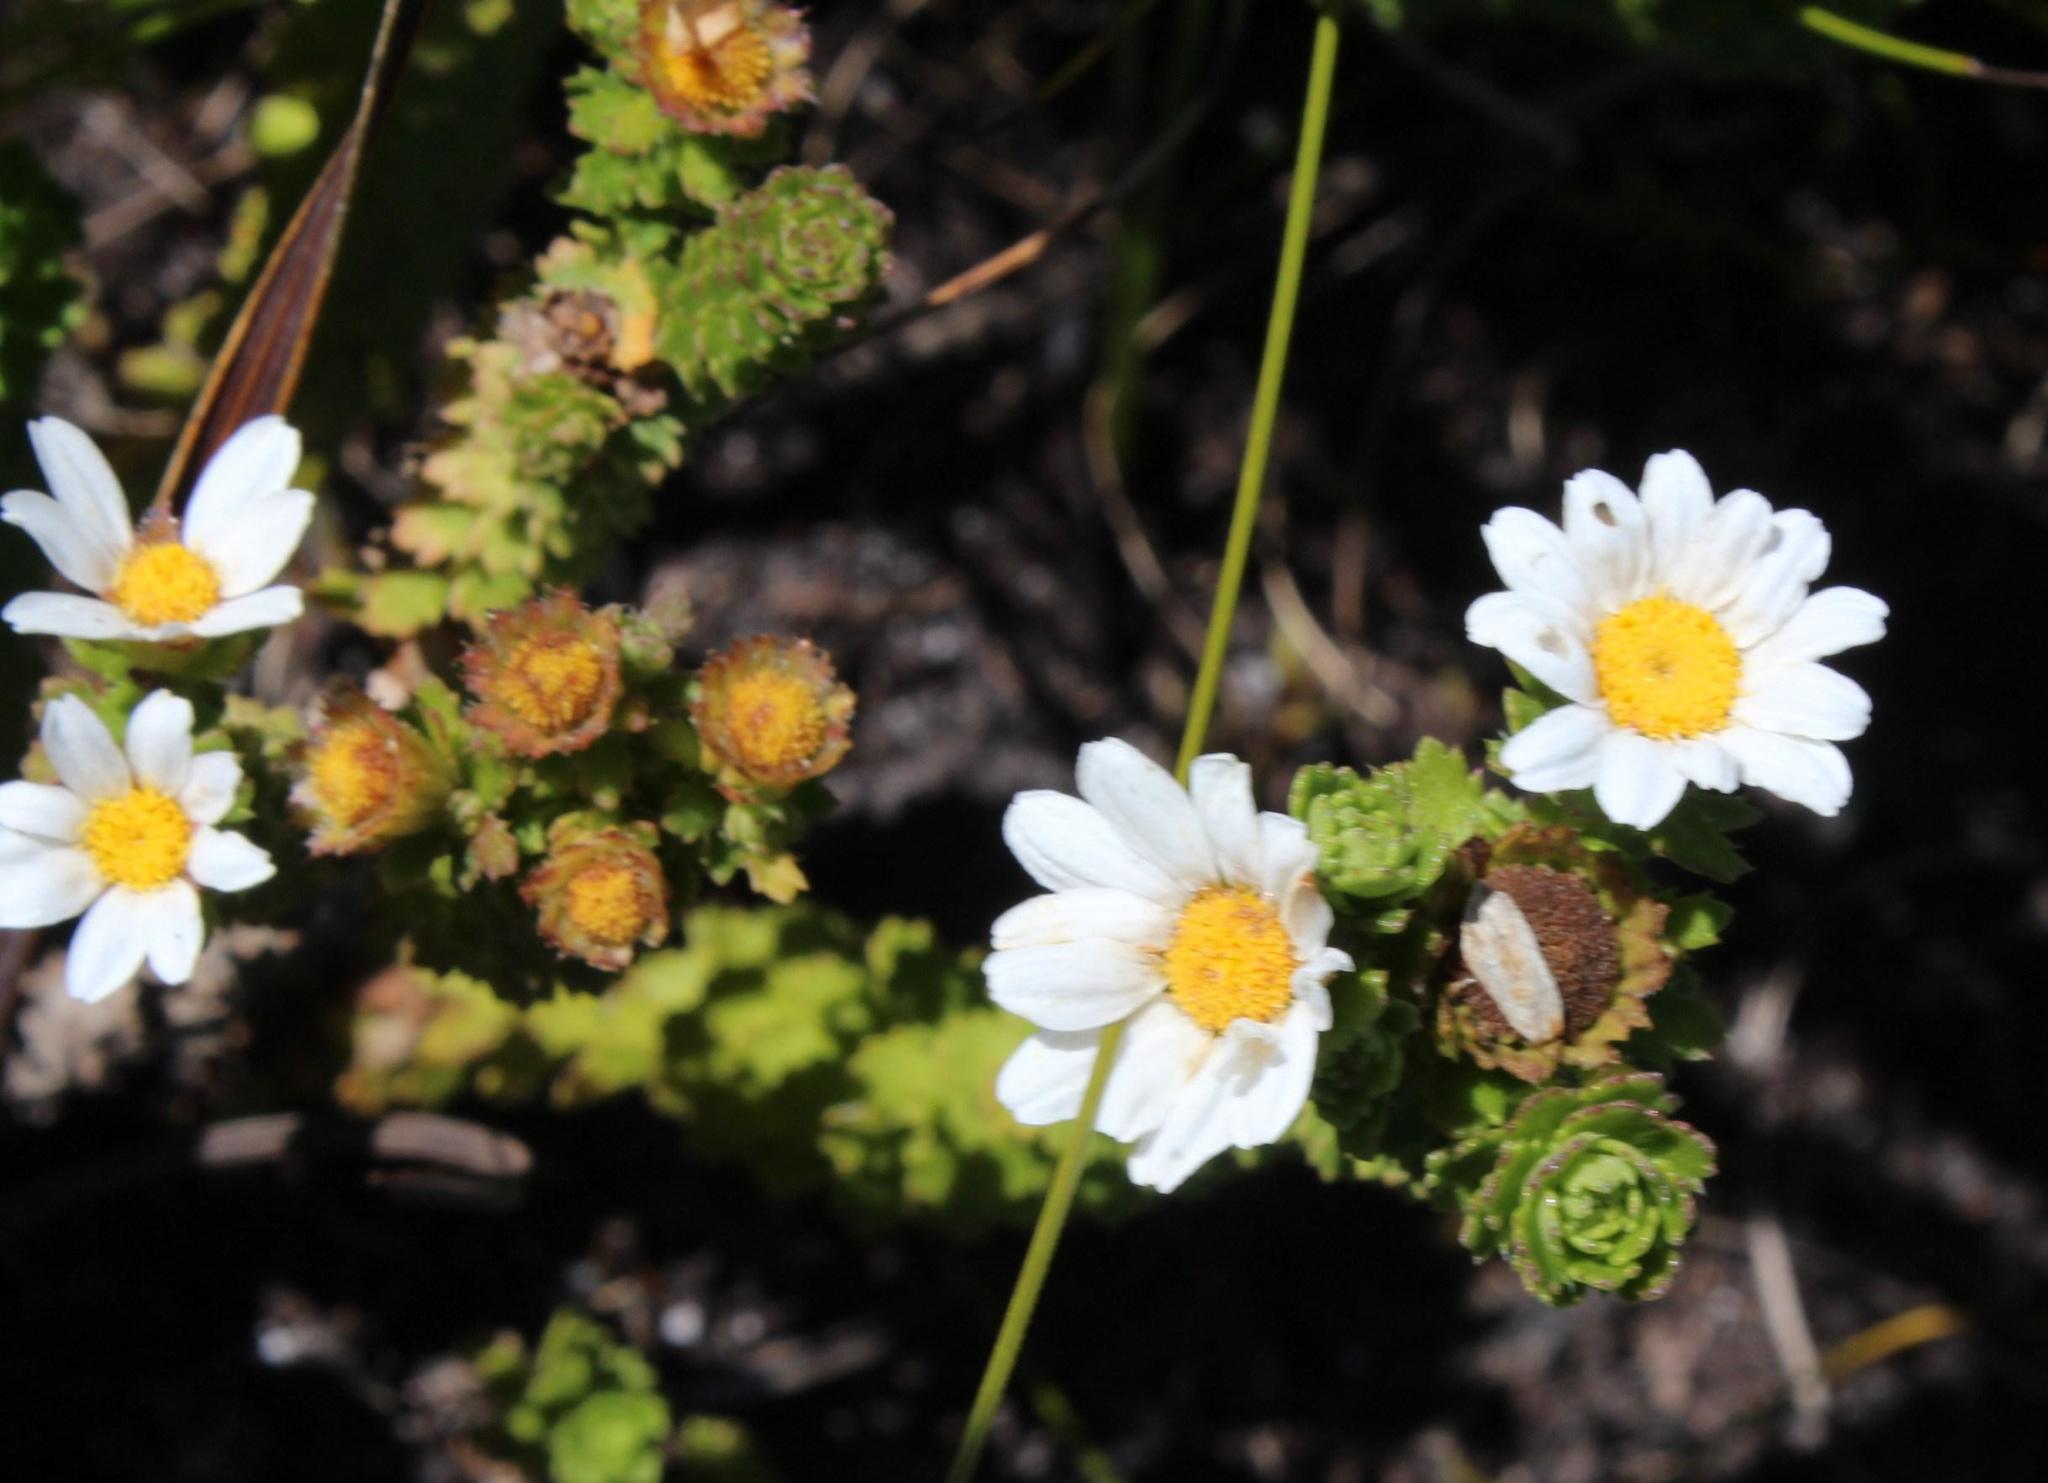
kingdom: Plantae
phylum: Tracheophyta
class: Magnoliopsida
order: Asterales
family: Asteraceae
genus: Osmitopsis
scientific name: Osmitopsis parvifolia
